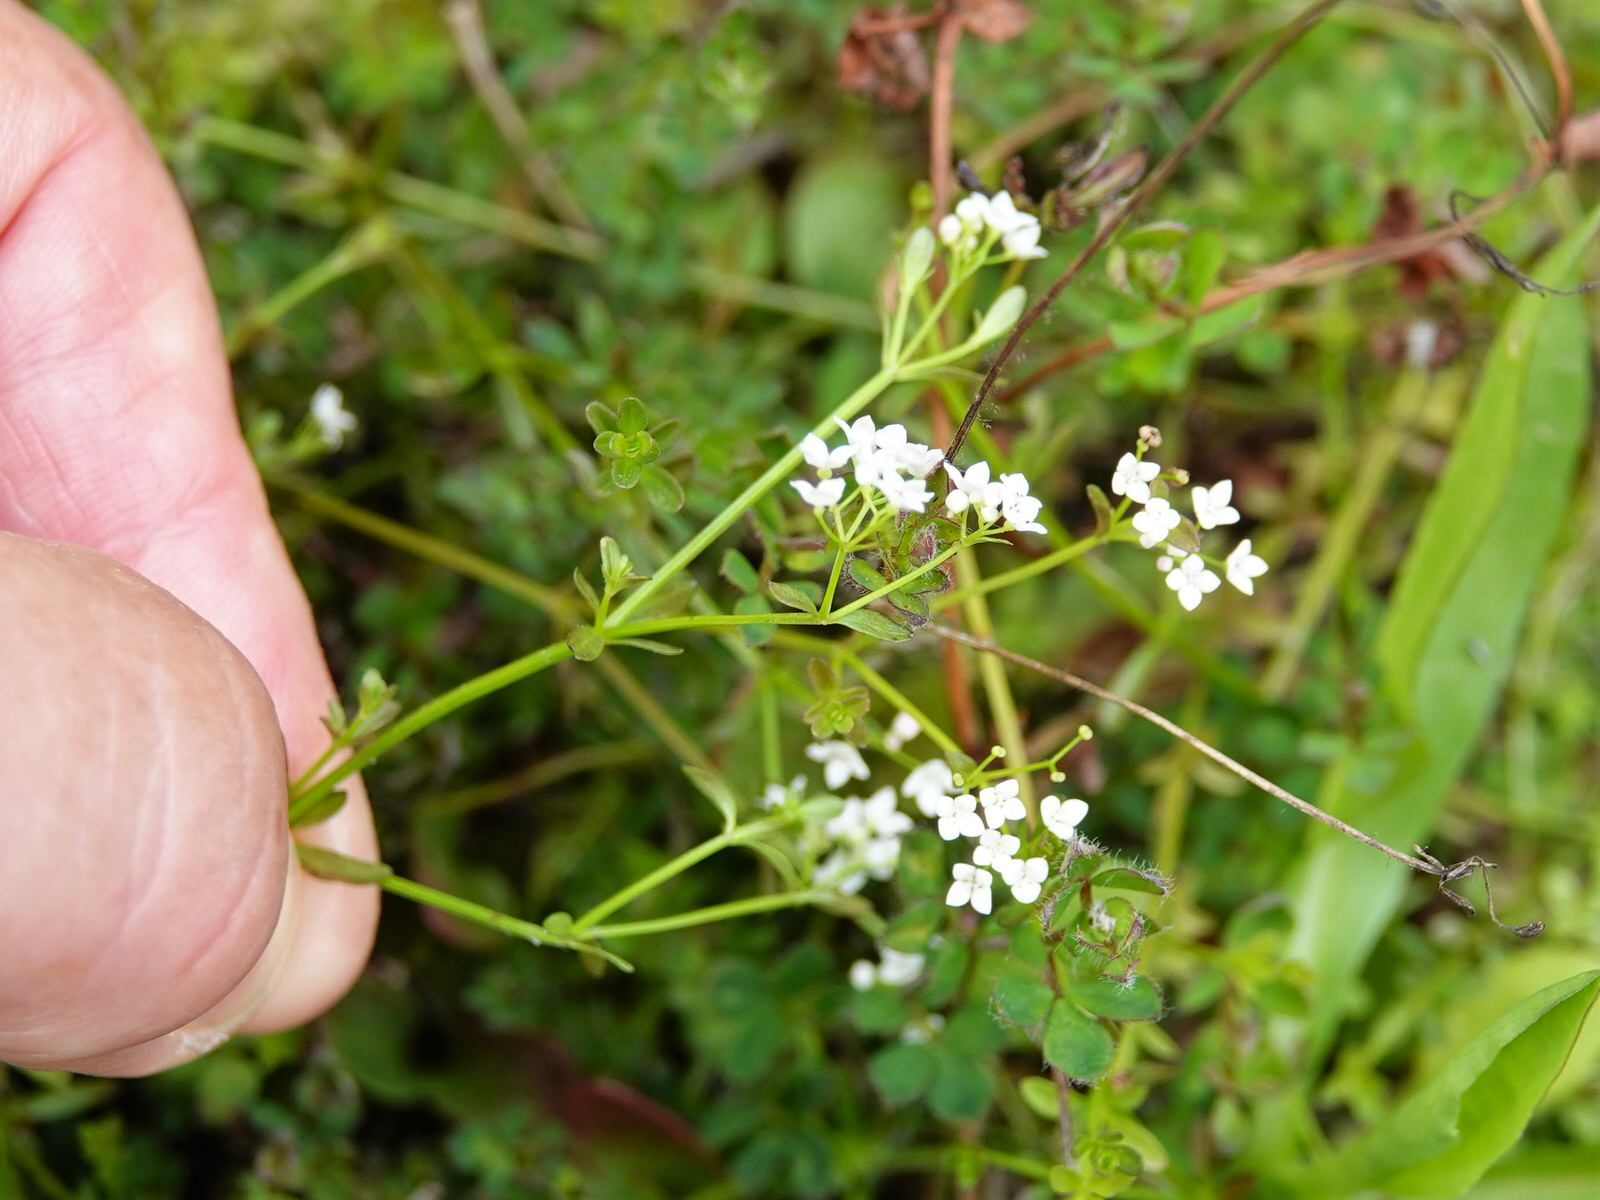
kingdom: Plantae
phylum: Tracheophyta
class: Magnoliopsida
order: Gentianales
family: Rubiaceae
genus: Galium
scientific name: Galium palustre
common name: Common marsh-bedstraw
